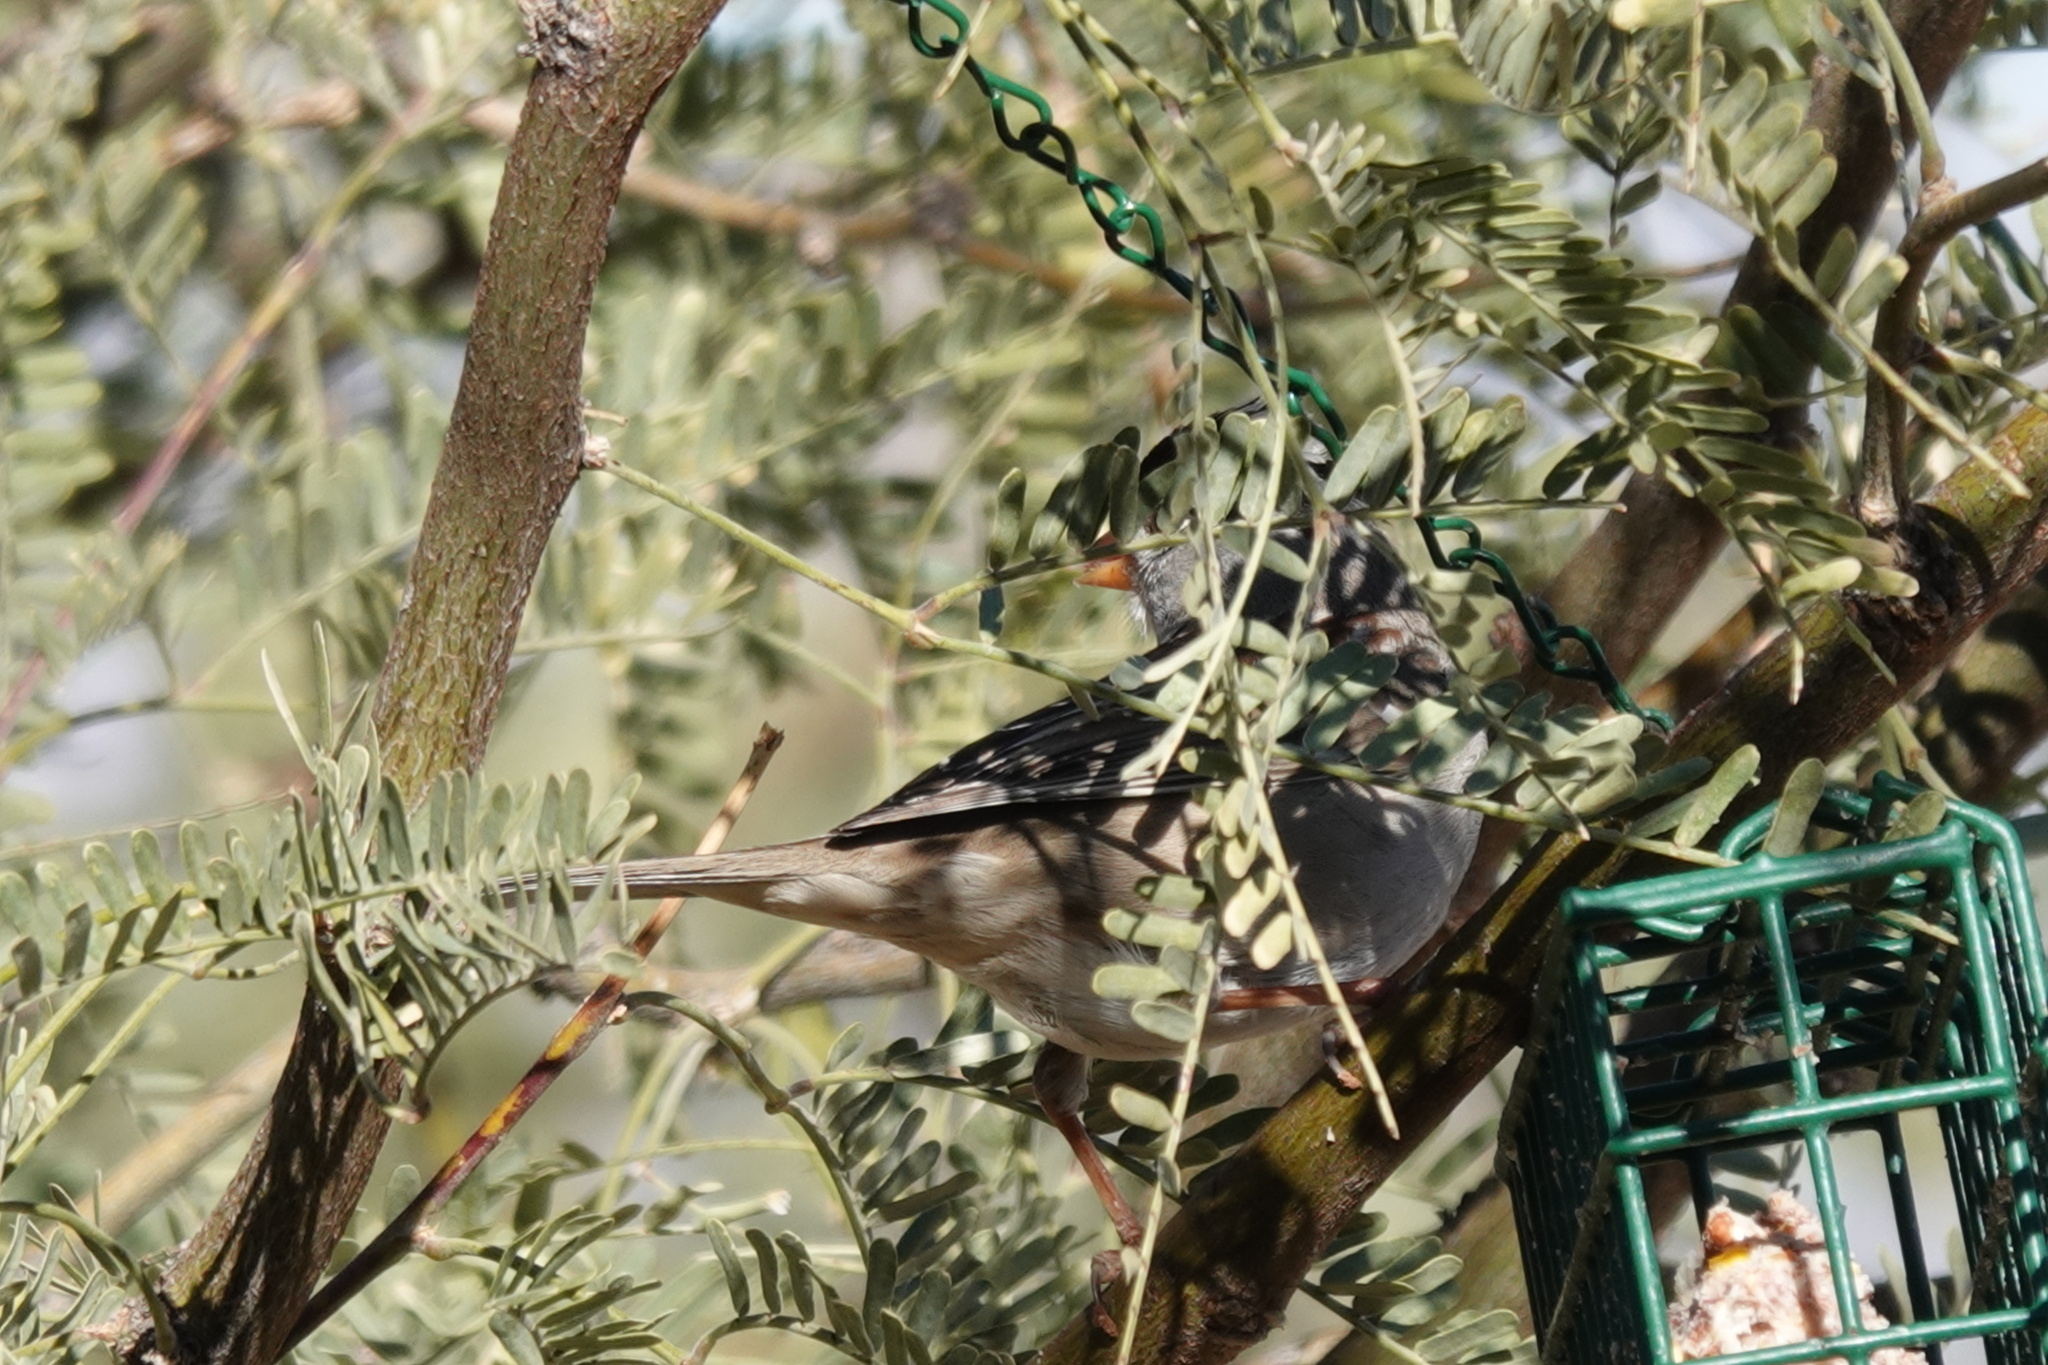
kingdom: Animalia
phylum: Chordata
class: Aves
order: Passeriformes
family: Passerellidae
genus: Zonotrichia
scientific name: Zonotrichia leucophrys
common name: White-crowned sparrow
